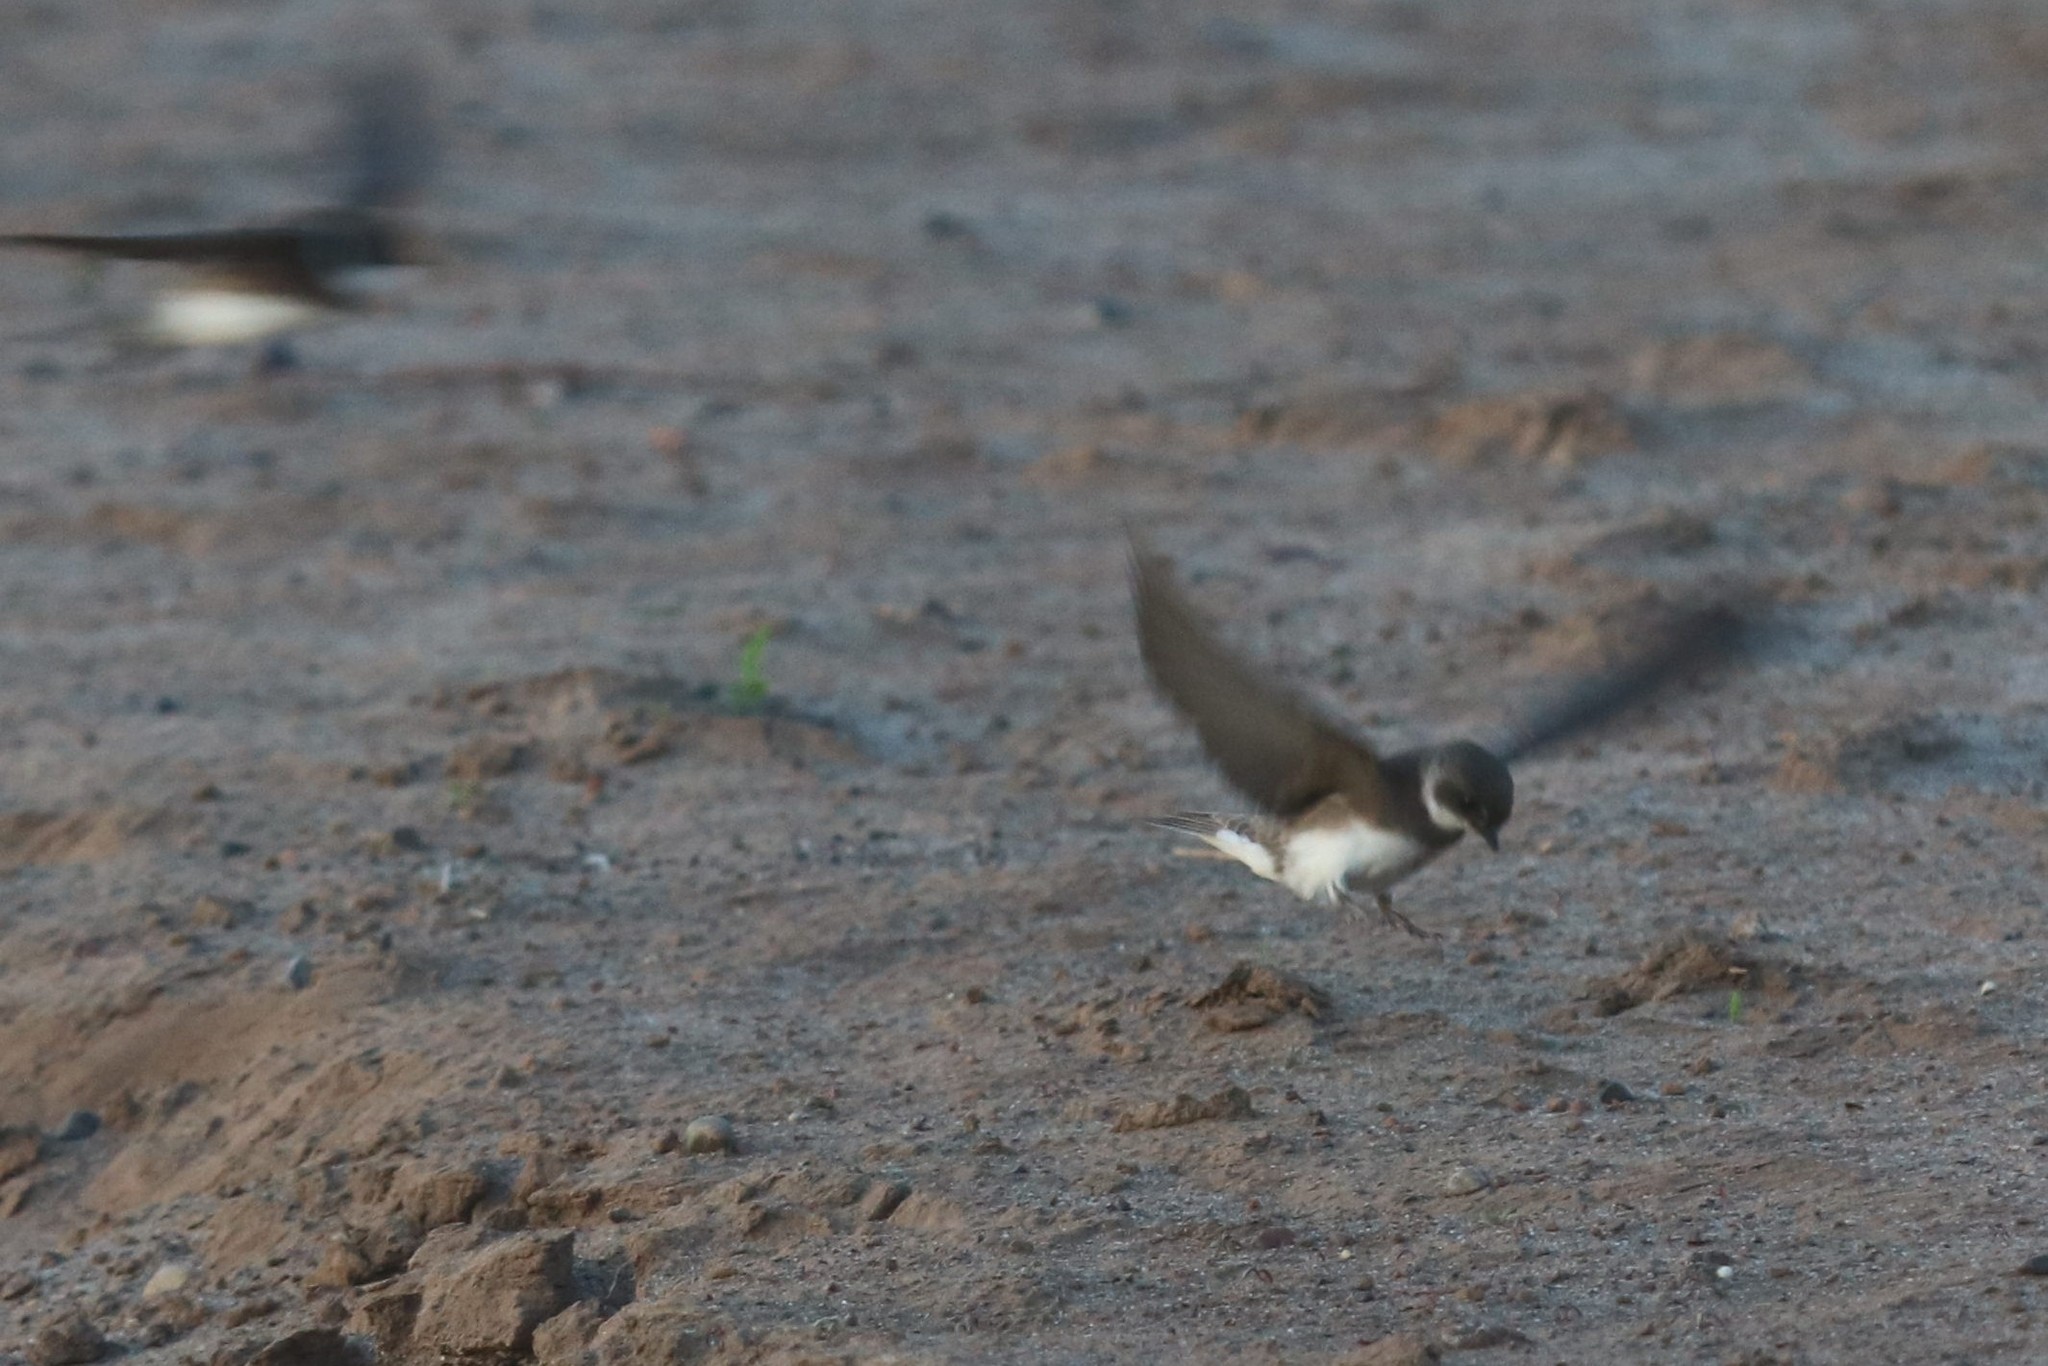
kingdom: Animalia
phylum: Chordata
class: Aves
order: Passeriformes
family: Hirundinidae
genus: Riparia
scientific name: Riparia riparia
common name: Sand martin
